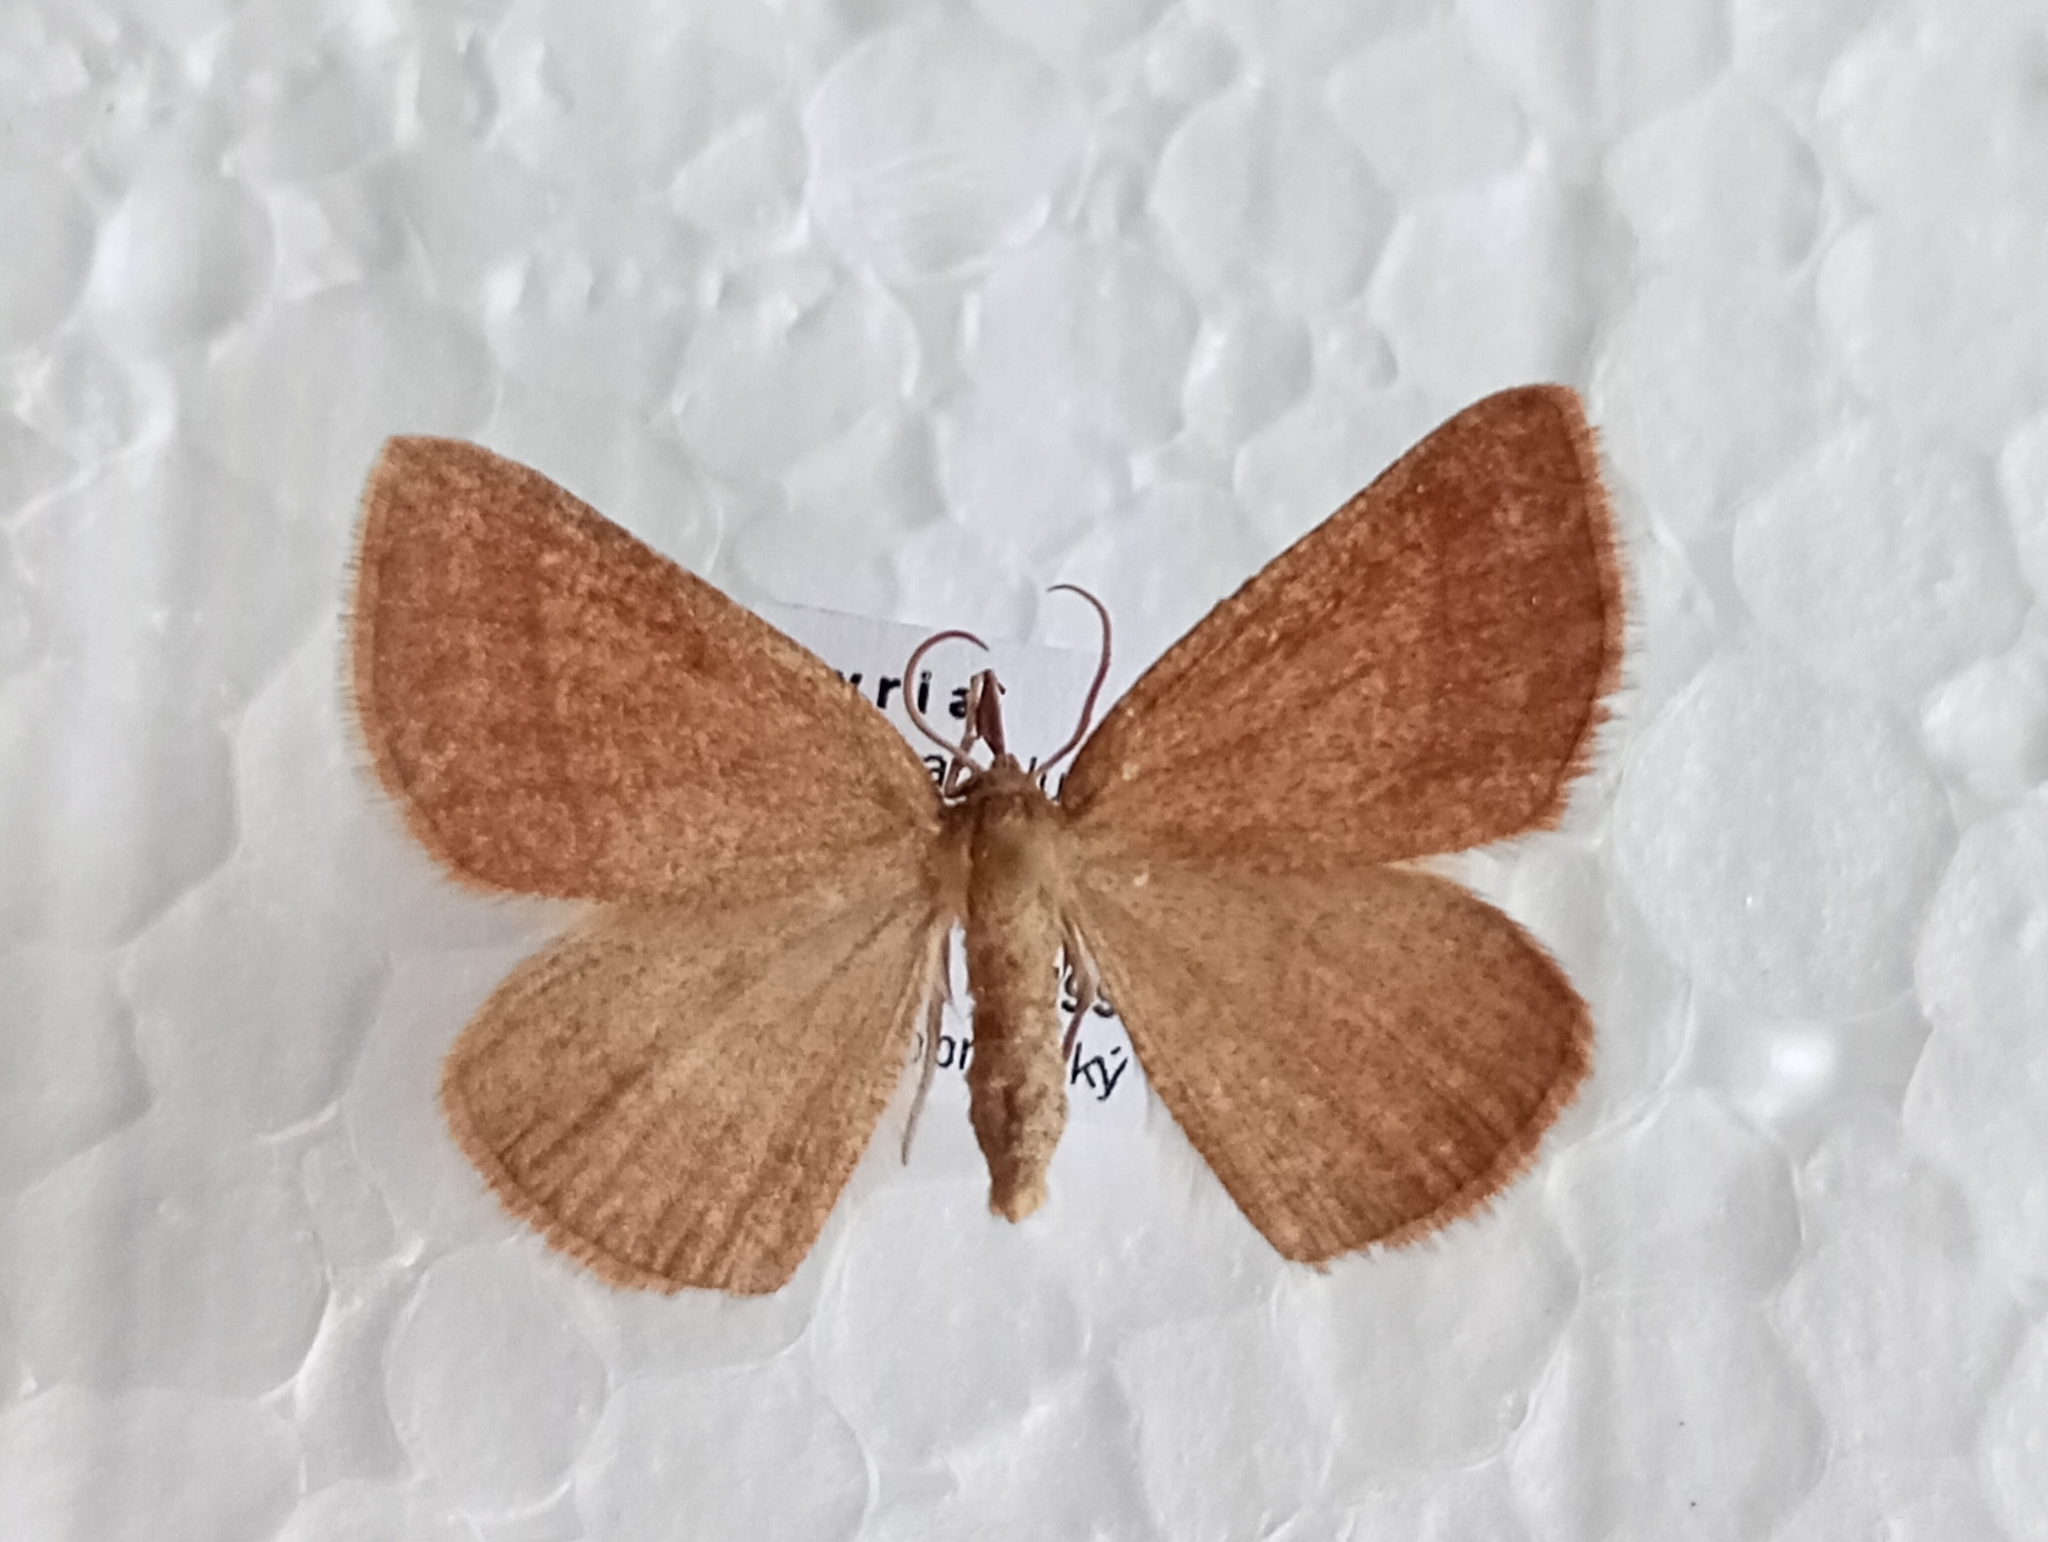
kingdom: Animalia
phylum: Arthropoda
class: Insecta
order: Lepidoptera
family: Geometridae
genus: Aplasta
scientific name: Aplasta ononaria
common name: Rest harrow
